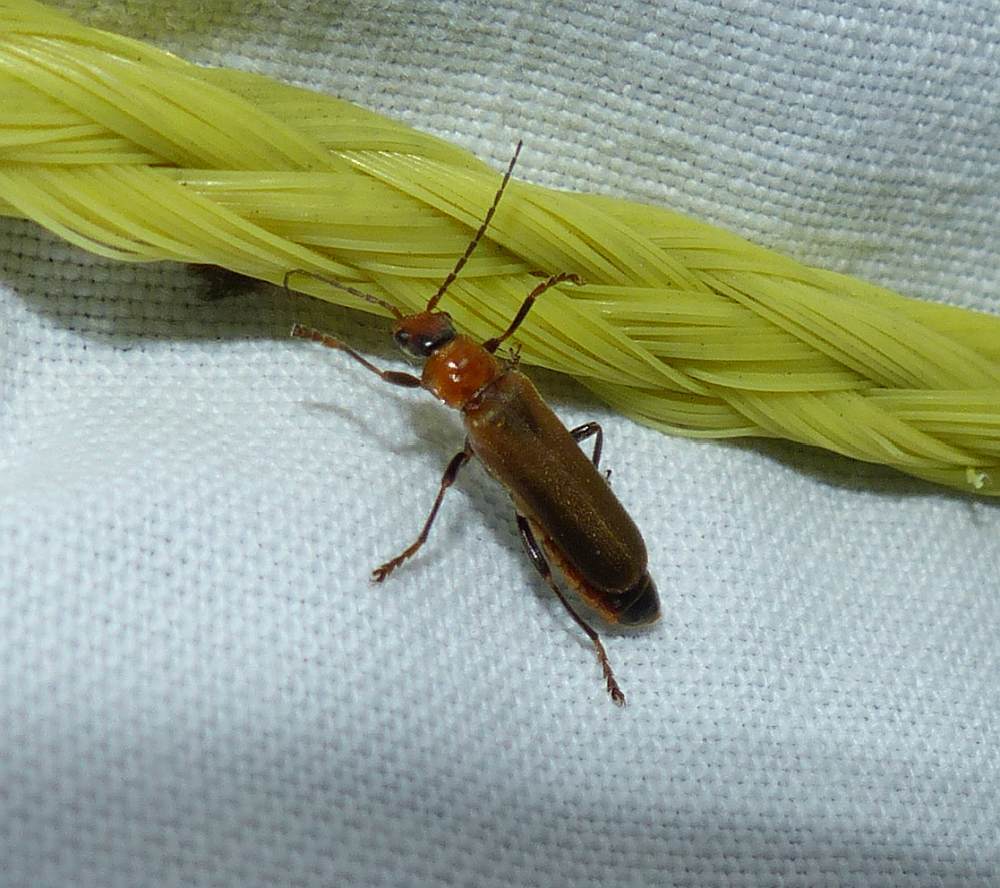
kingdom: Animalia
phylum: Arthropoda
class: Insecta
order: Coleoptera
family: Cantharidae
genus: Cantharis
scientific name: Cantharis rufa
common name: Red-spotted soldier beetle
